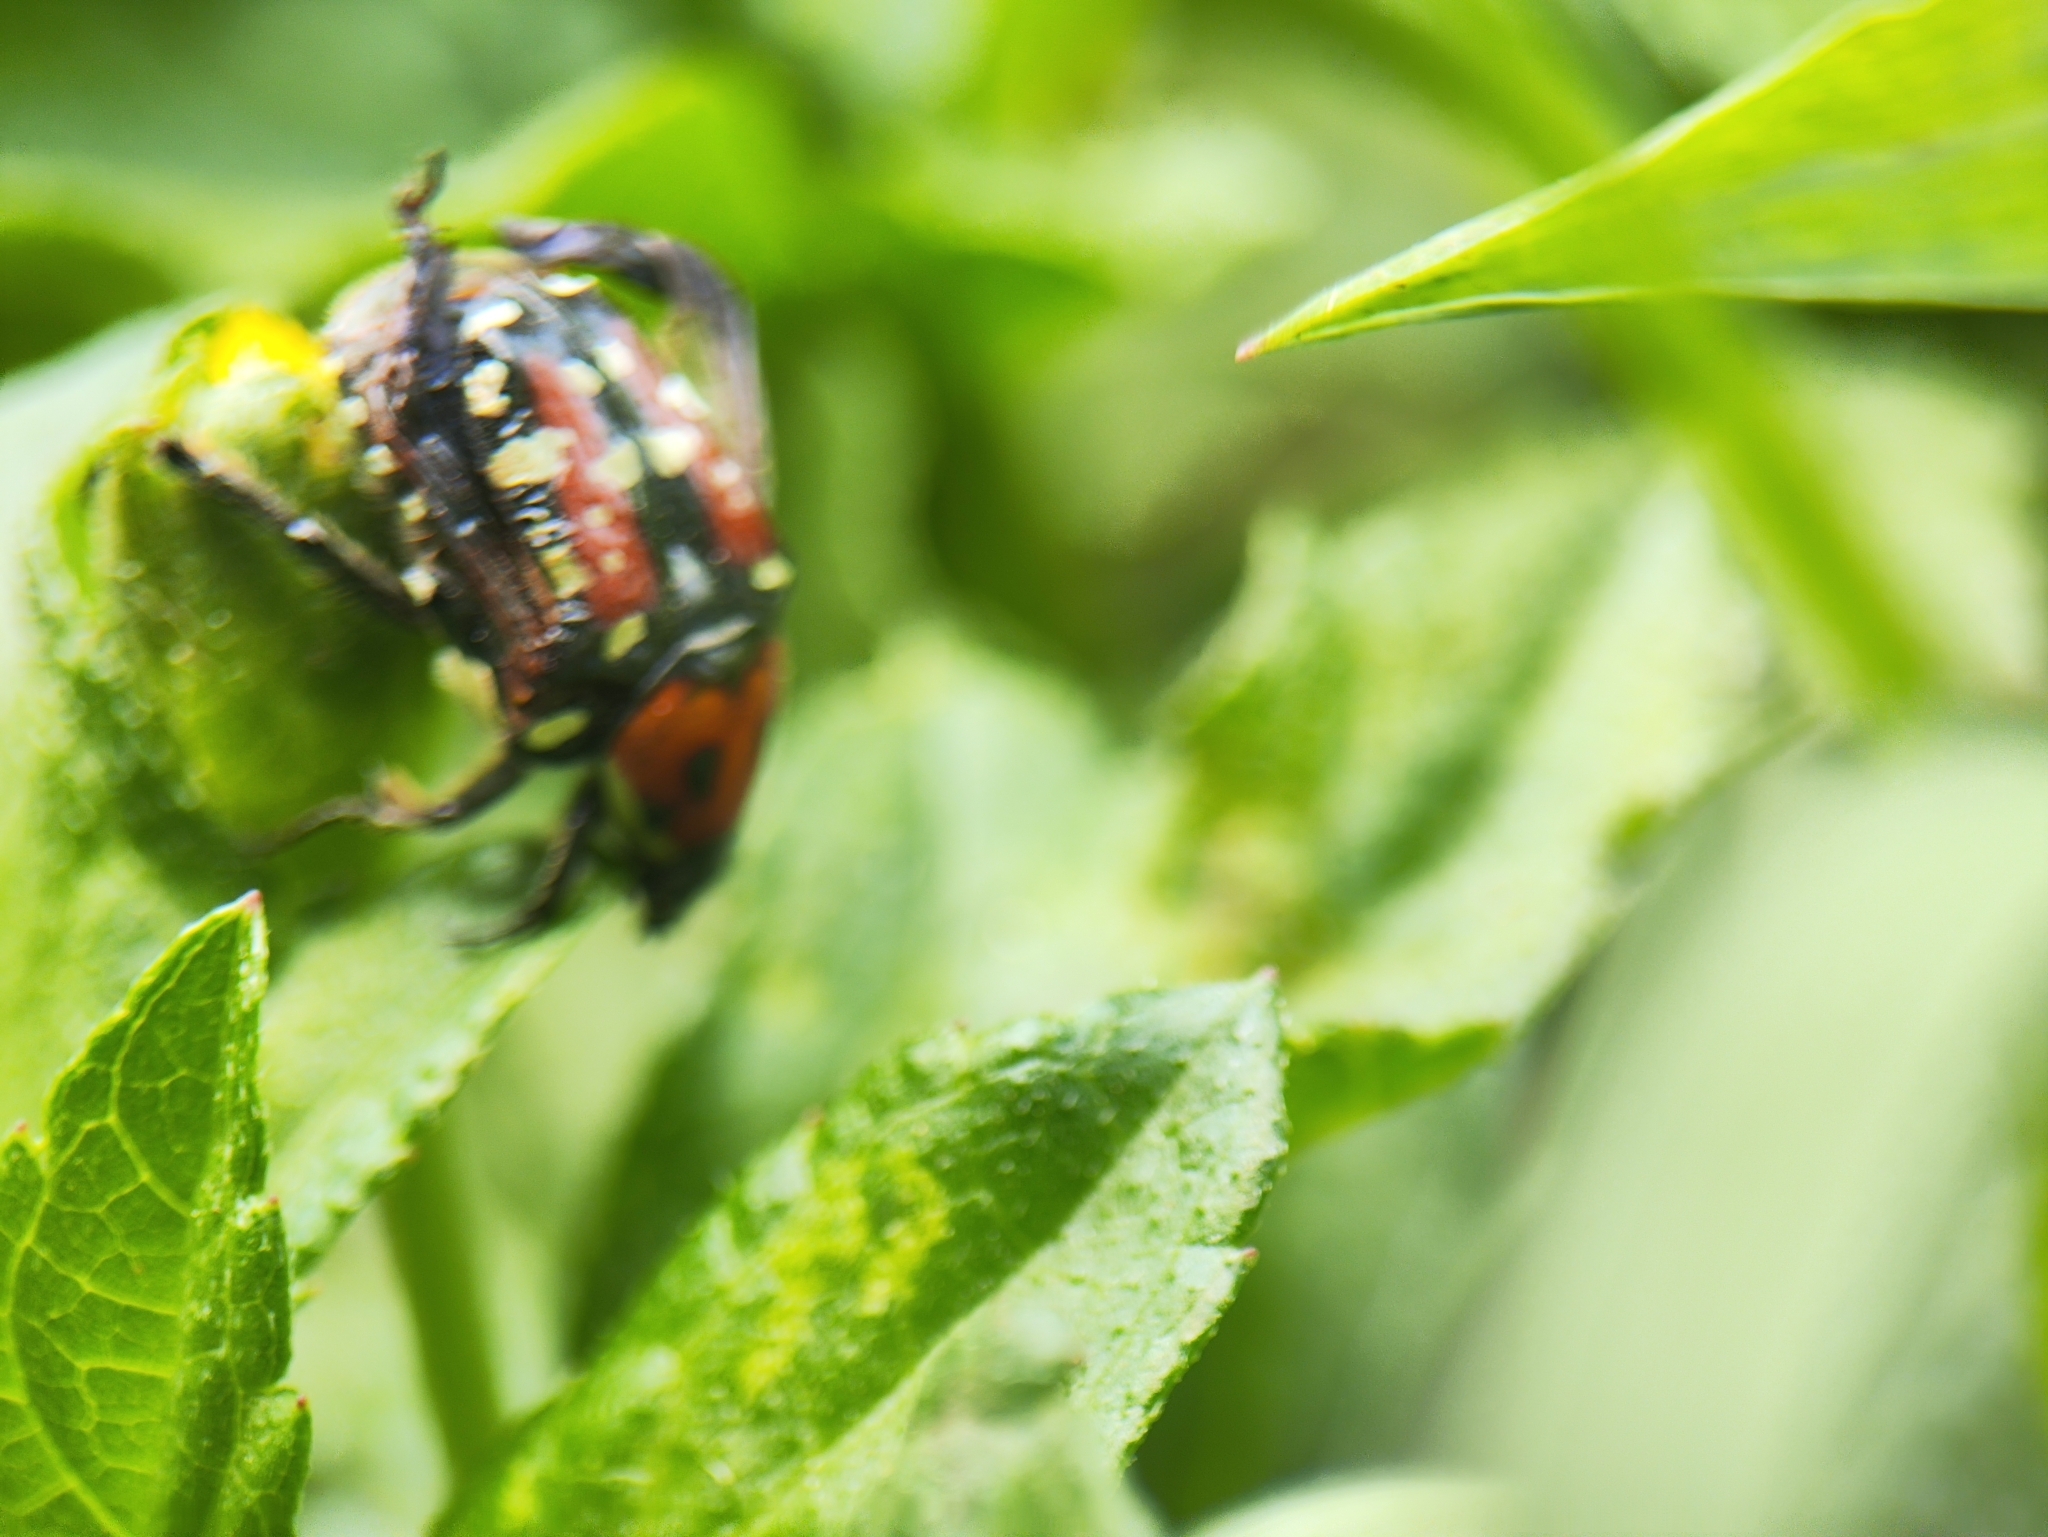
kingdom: Animalia
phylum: Arthropoda
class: Insecta
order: Coleoptera
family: Scarabaeidae
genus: Gametis
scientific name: Gametis versicolor
